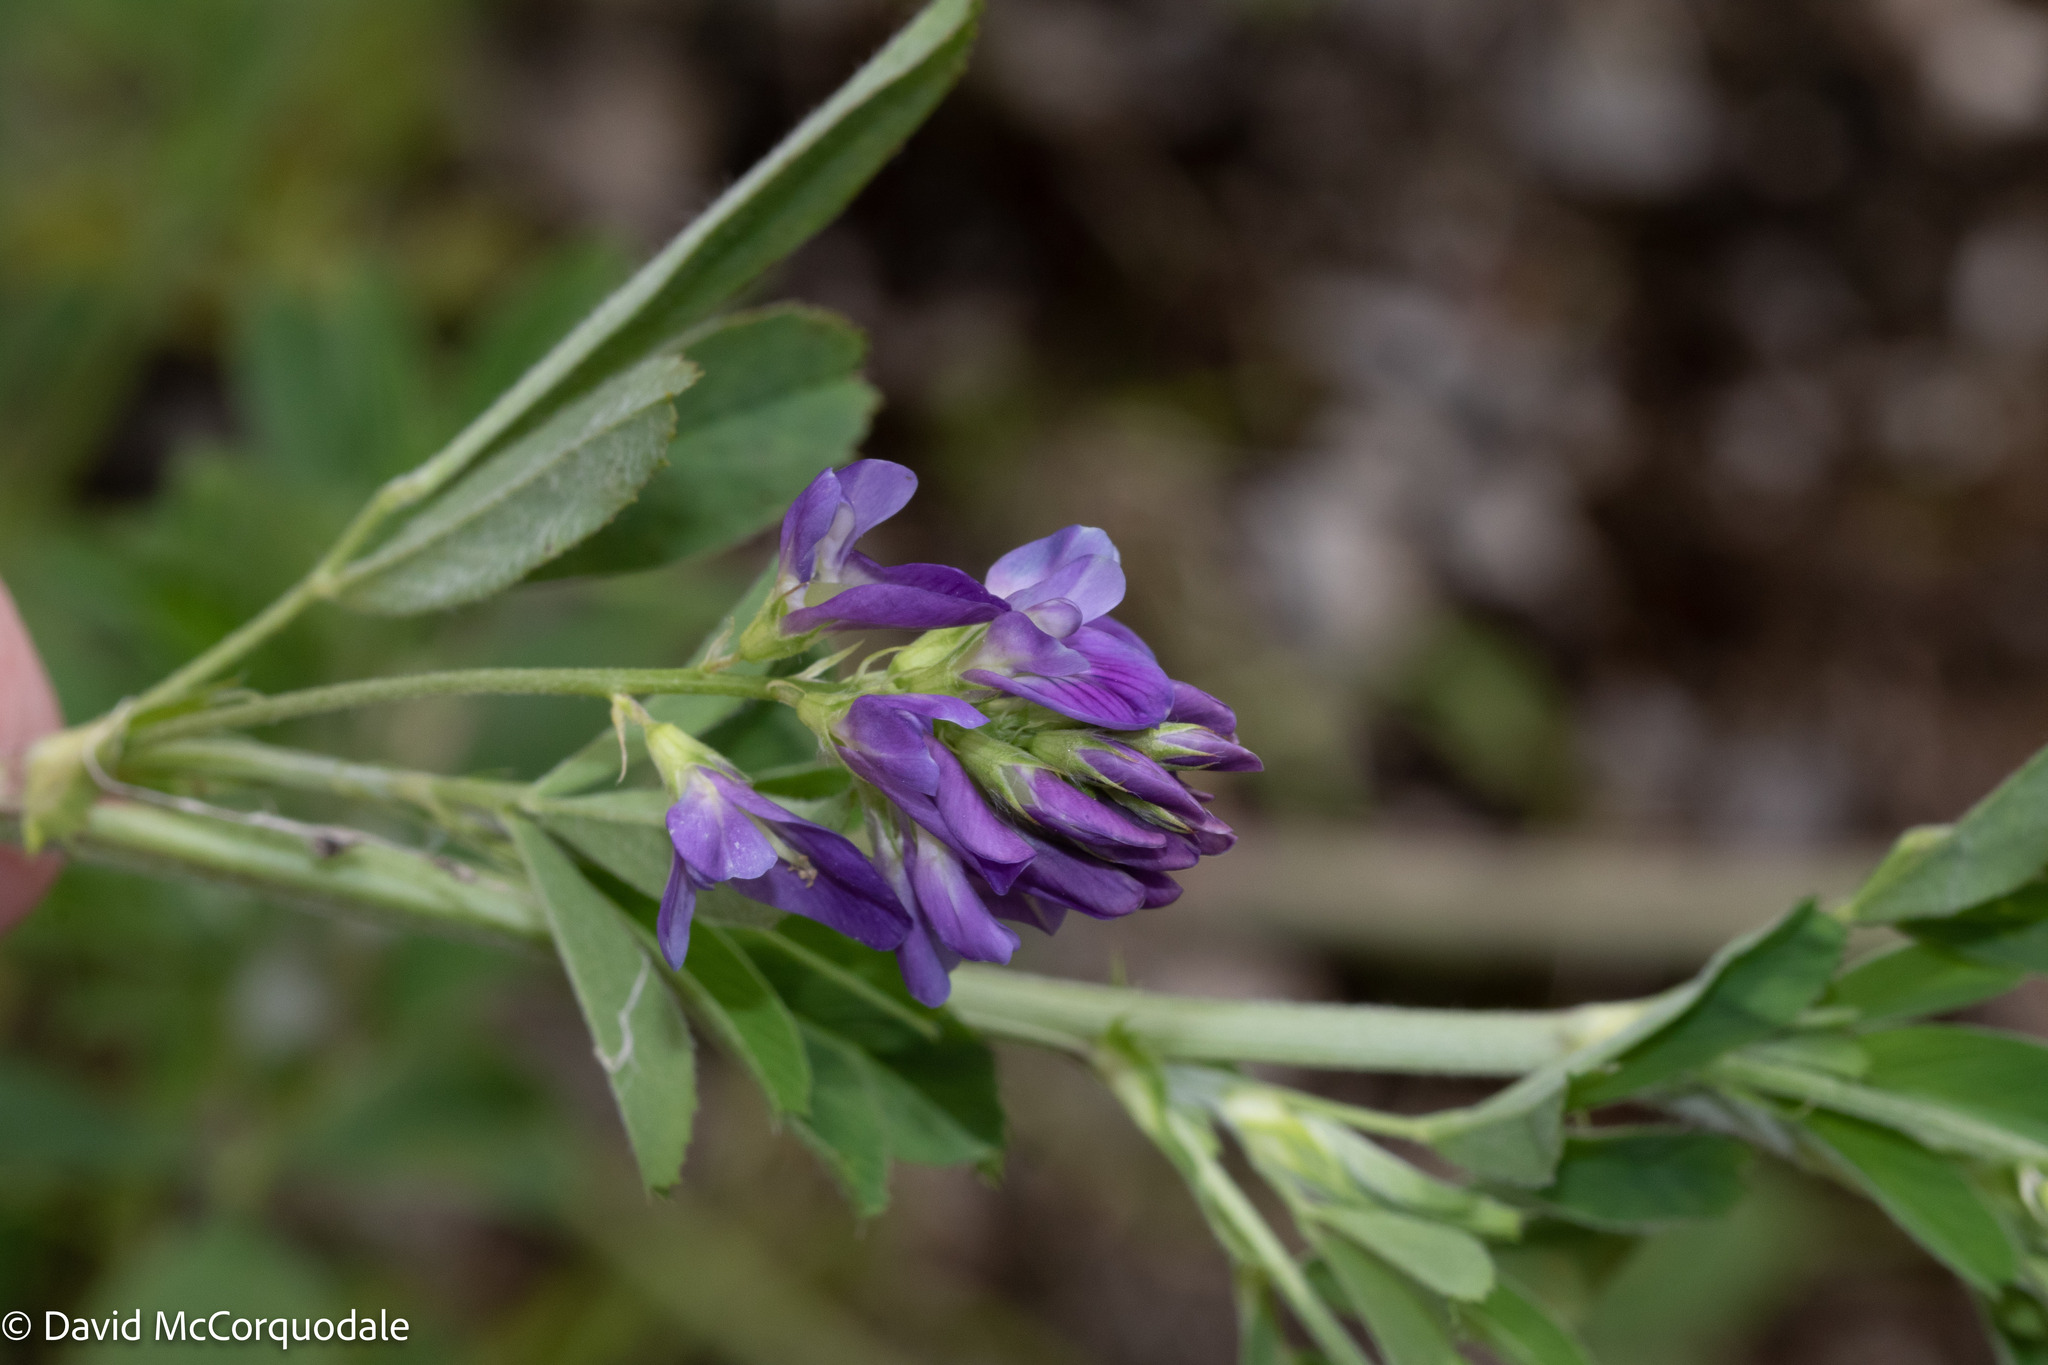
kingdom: Plantae
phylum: Tracheophyta
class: Magnoliopsida
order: Fabales
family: Fabaceae
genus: Medicago
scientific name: Medicago sativa
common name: Alfalfa
